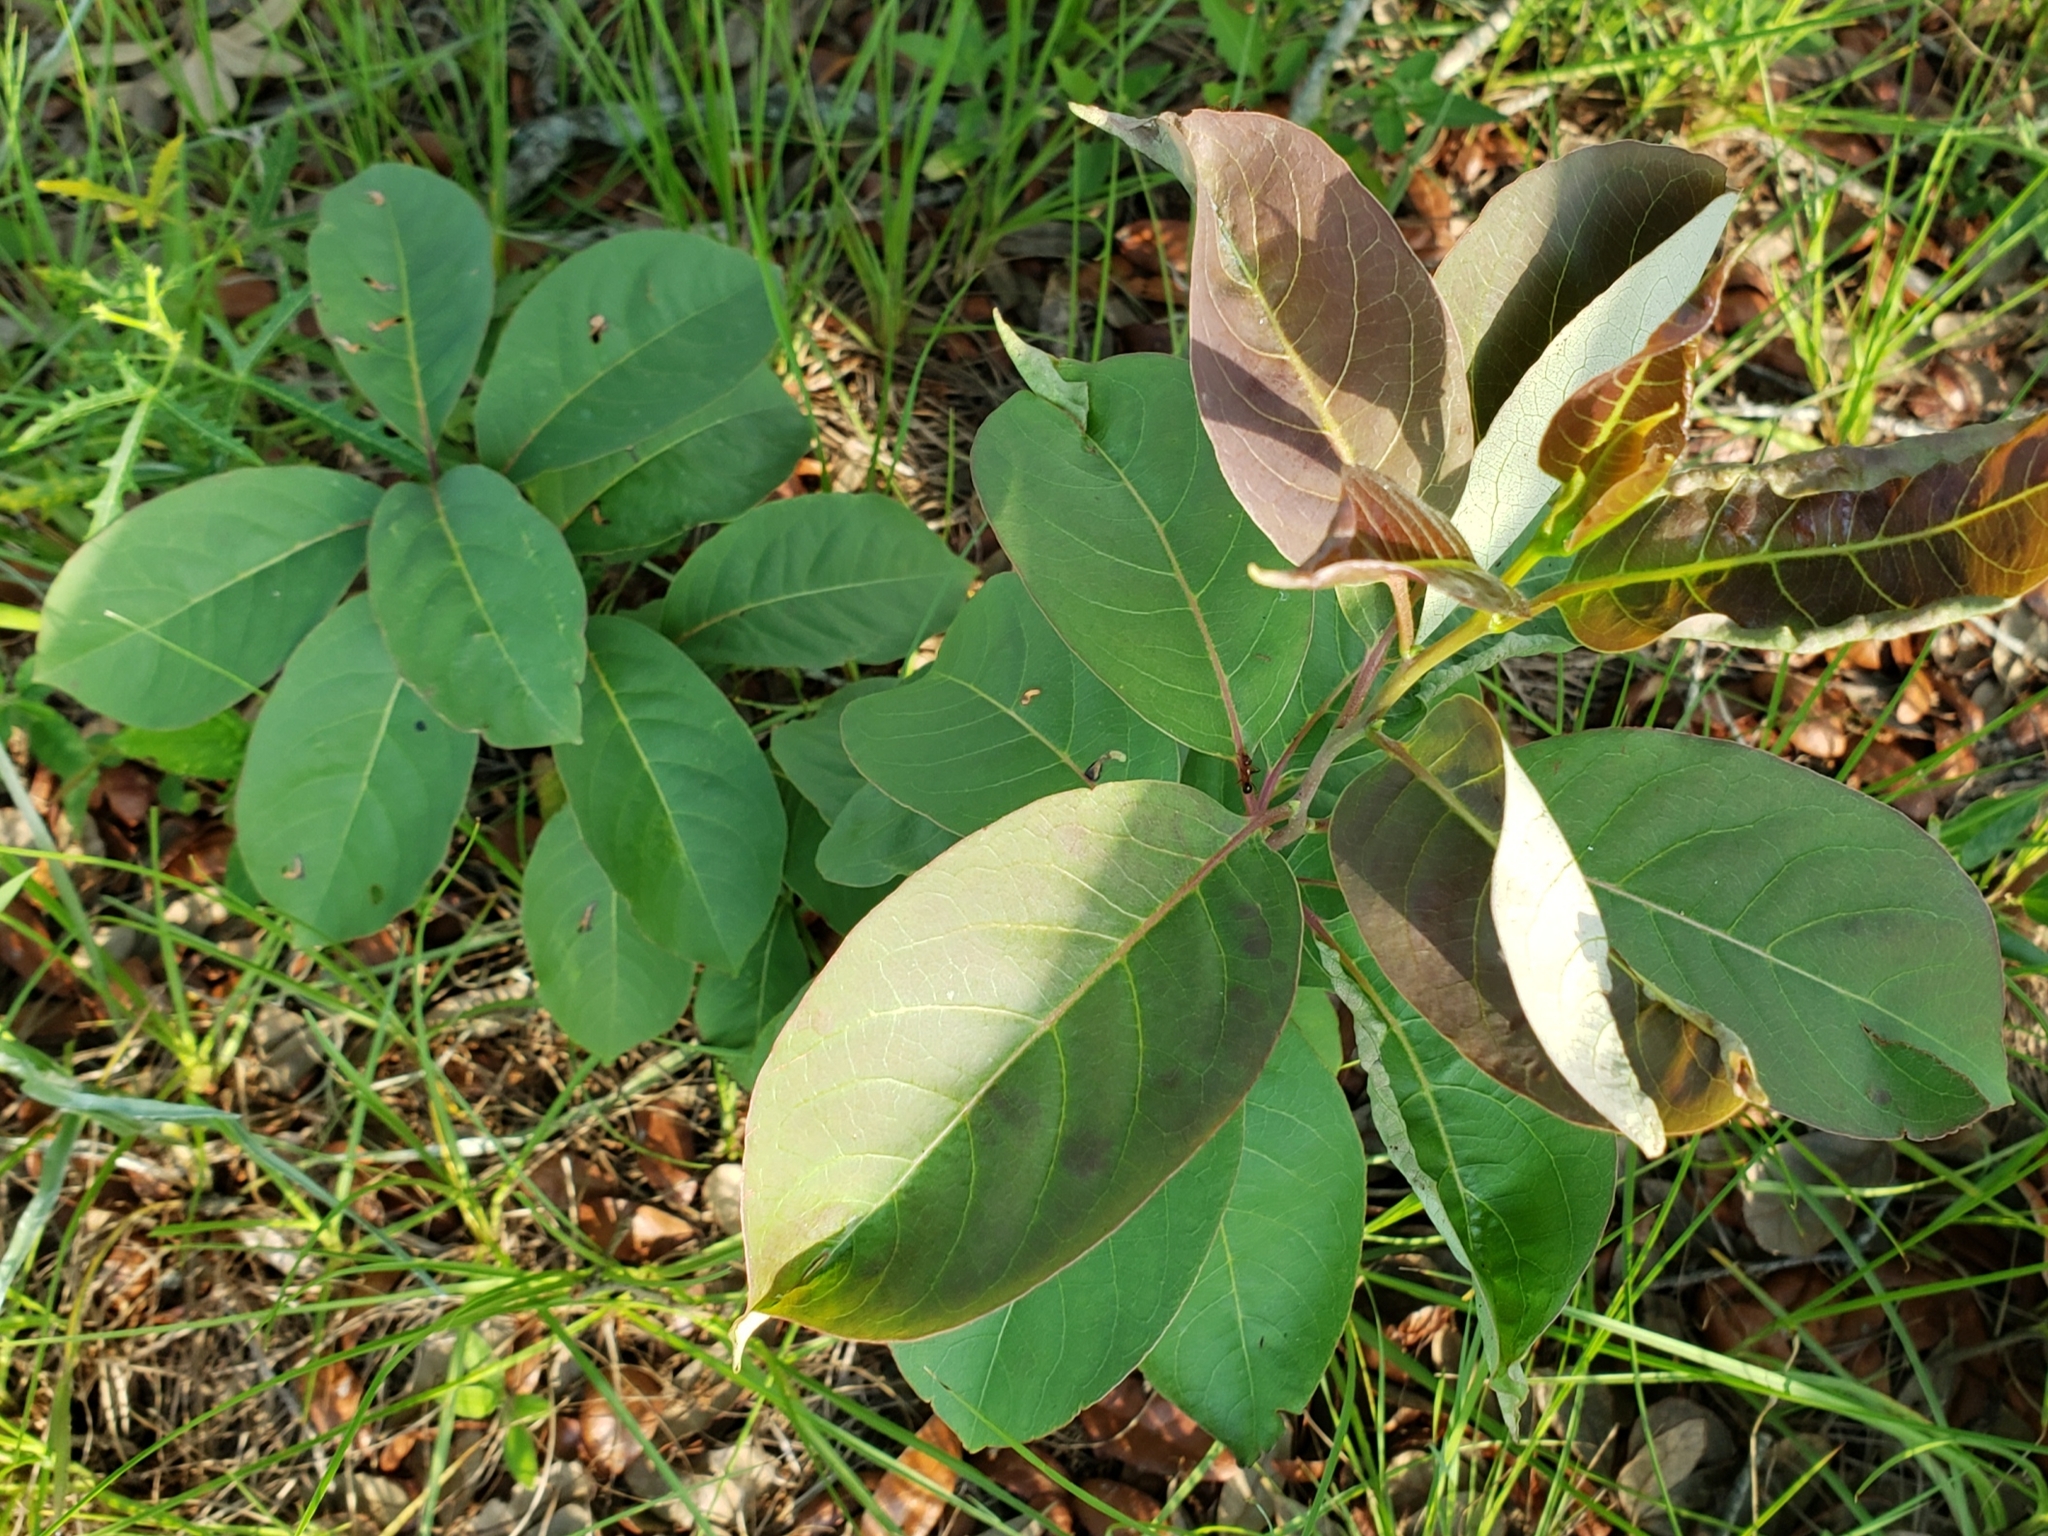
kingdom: Plantae
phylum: Tracheophyta
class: Magnoliopsida
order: Ericales
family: Ebenaceae
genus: Diospyros
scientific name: Diospyros virginiana
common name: Persimmon
